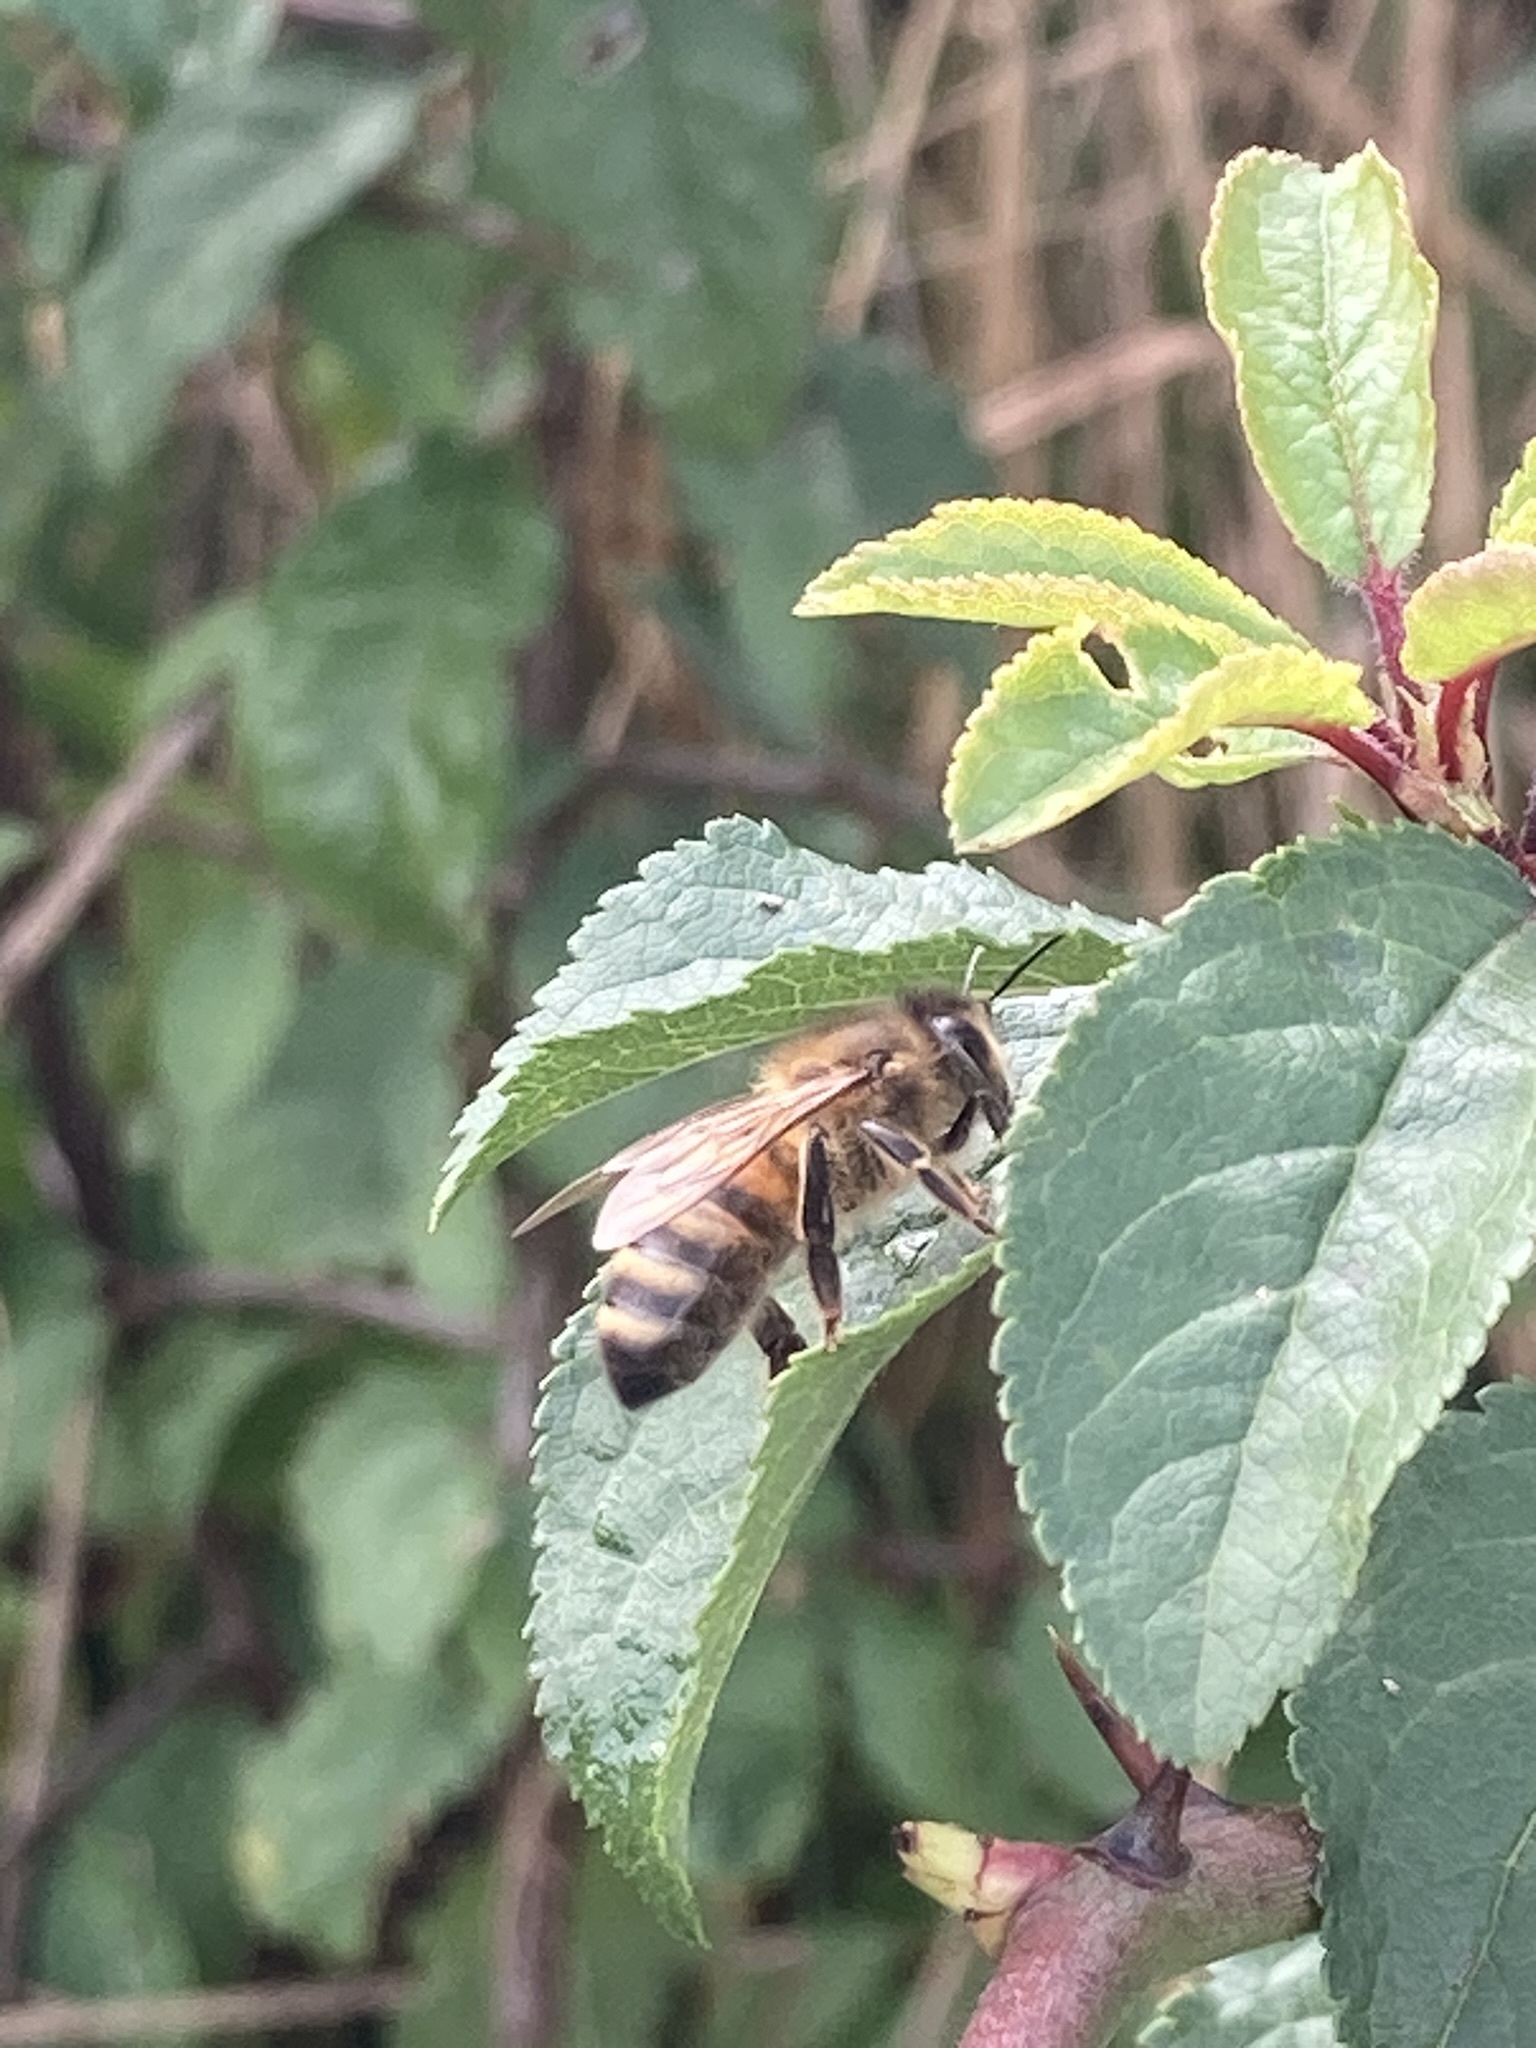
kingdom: Animalia
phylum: Arthropoda
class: Insecta
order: Hymenoptera
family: Apidae
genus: Apis
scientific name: Apis mellifera
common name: Honey bee
